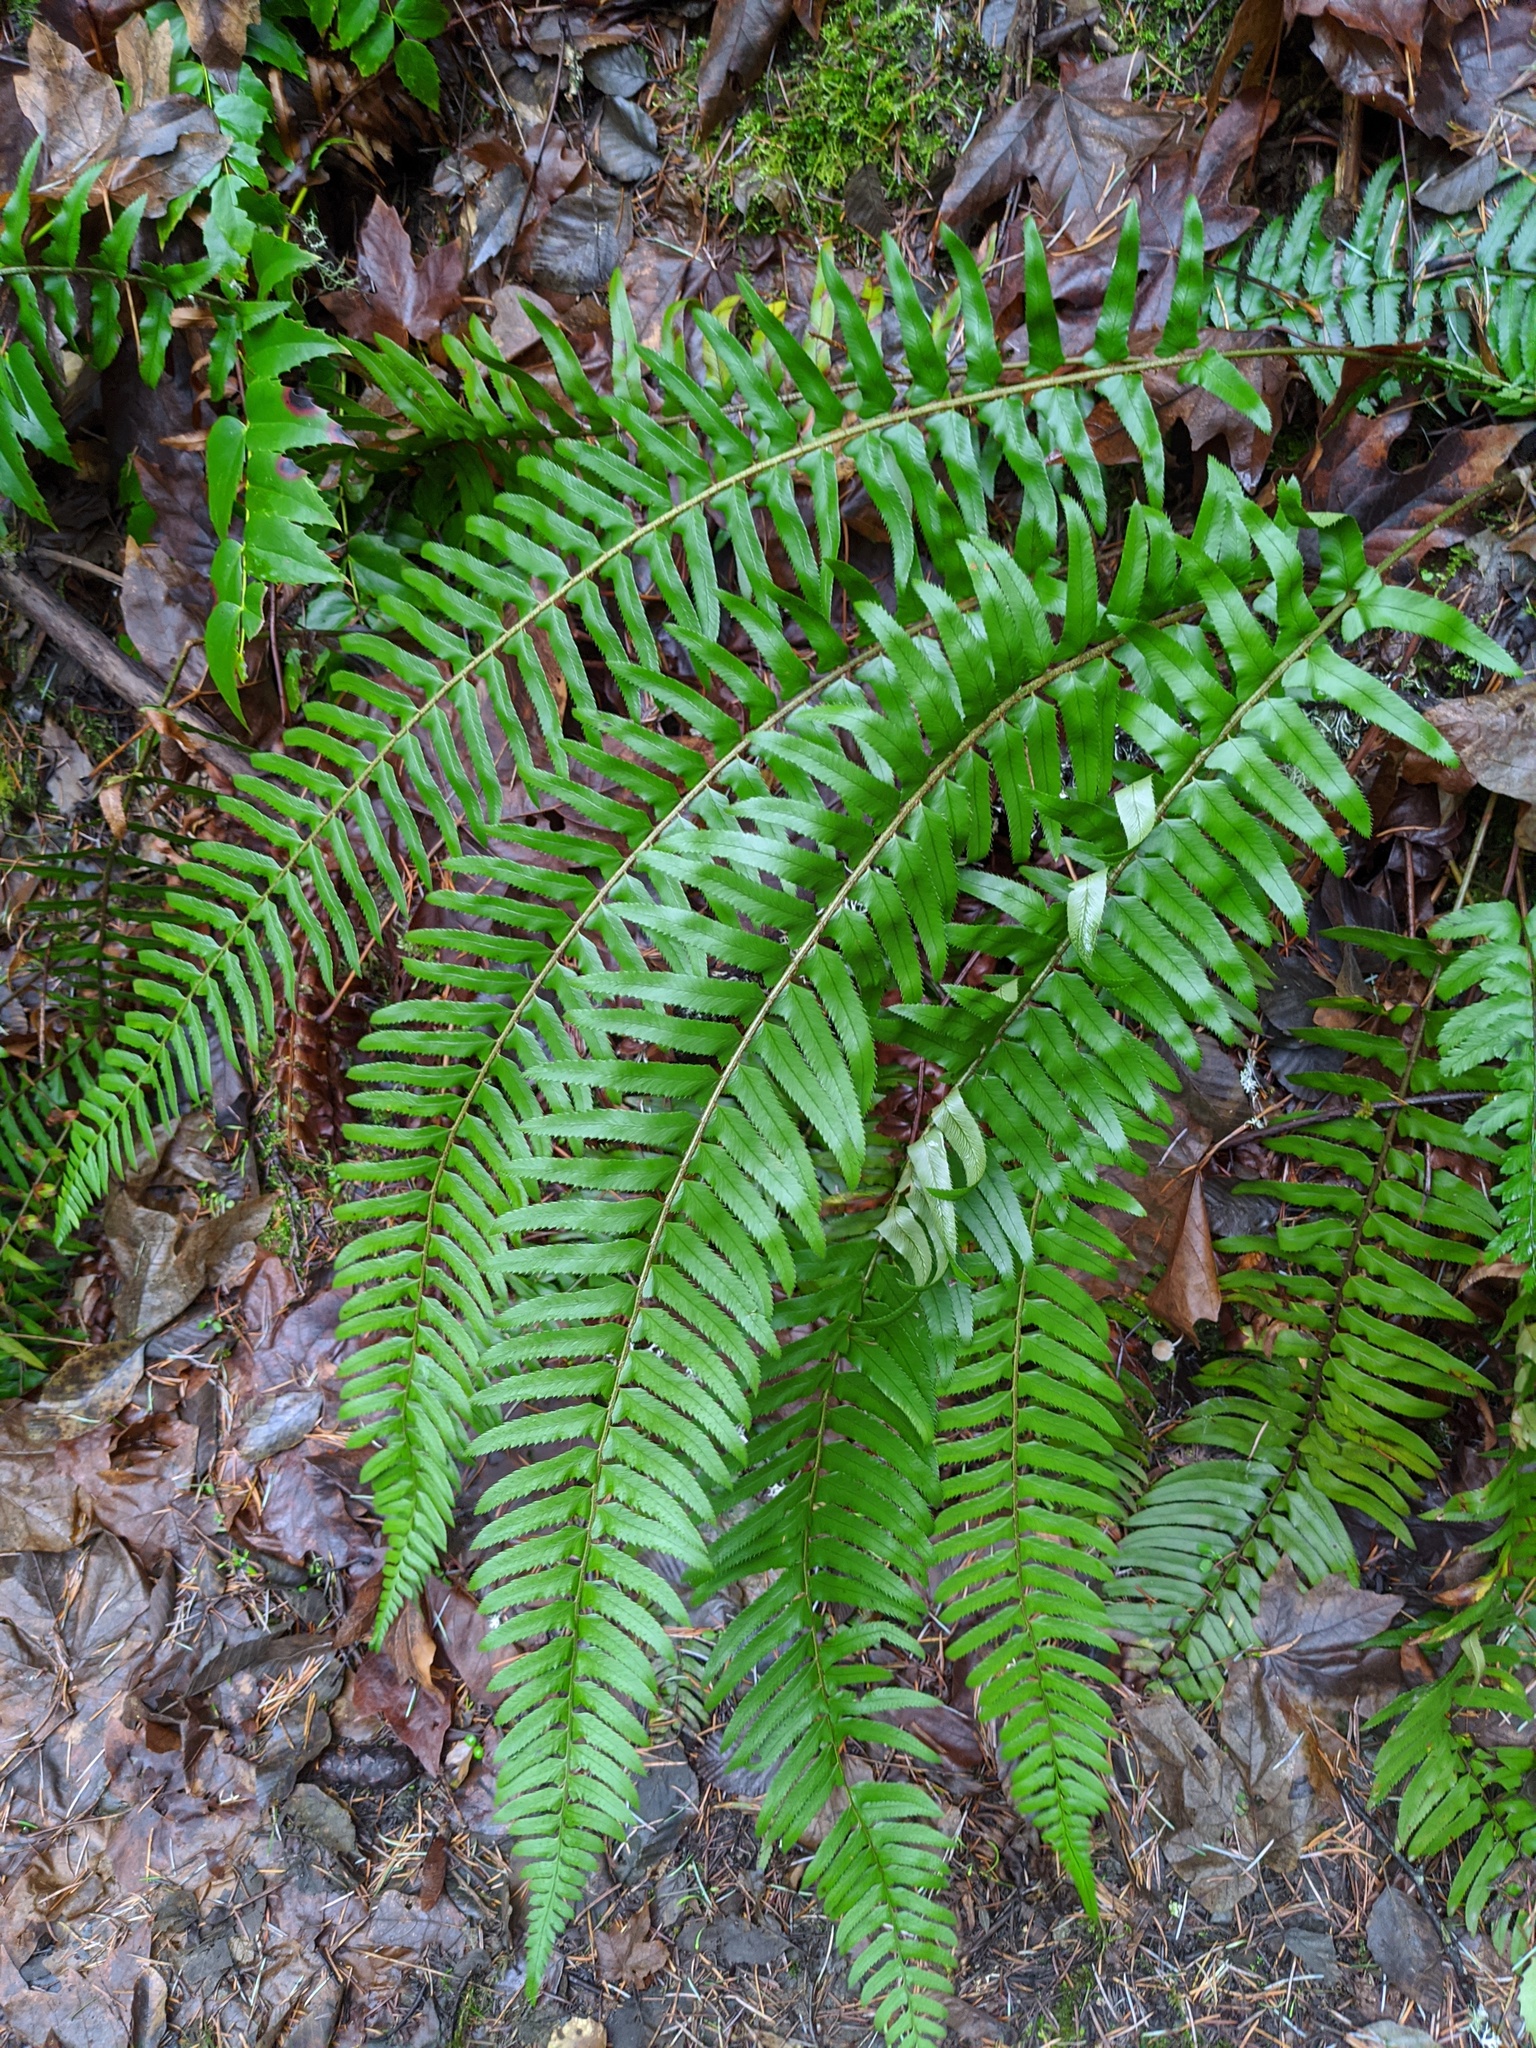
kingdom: Plantae
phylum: Tracheophyta
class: Polypodiopsida
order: Polypodiales
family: Dryopteridaceae
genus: Polystichum
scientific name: Polystichum munitum
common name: Western sword-fern
